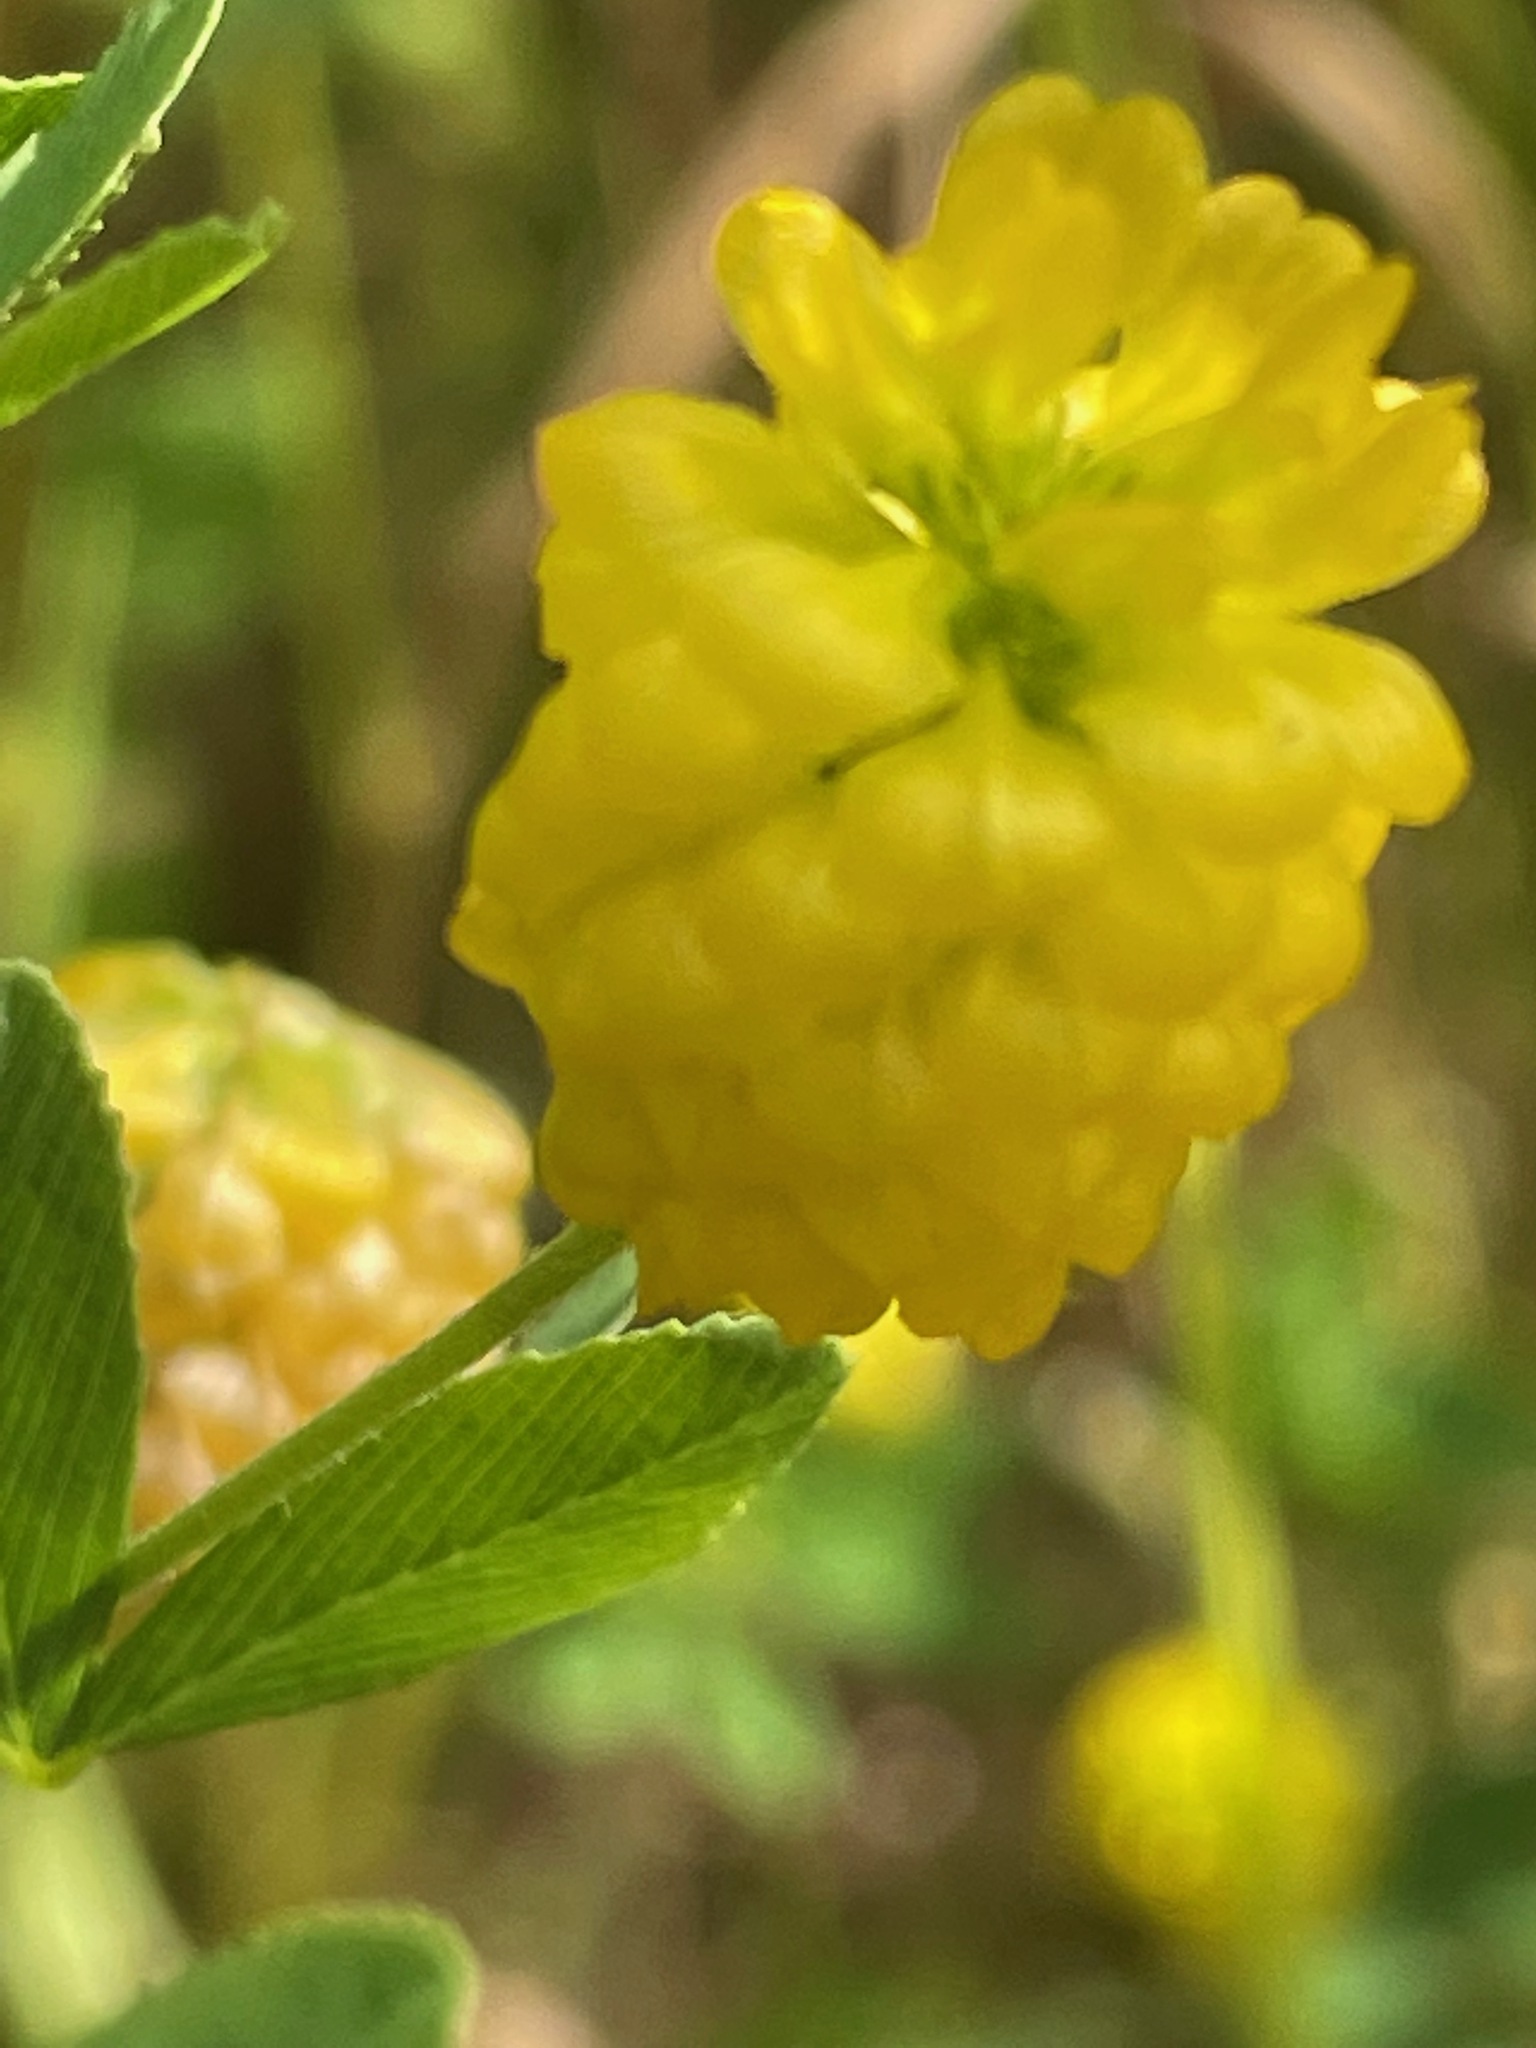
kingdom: Plantae
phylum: Tracheophyta
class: Magnoliopsida
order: Fabales
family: Fabaceae
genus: Trifolium
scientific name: Trifolium aureum
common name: Golden clover
